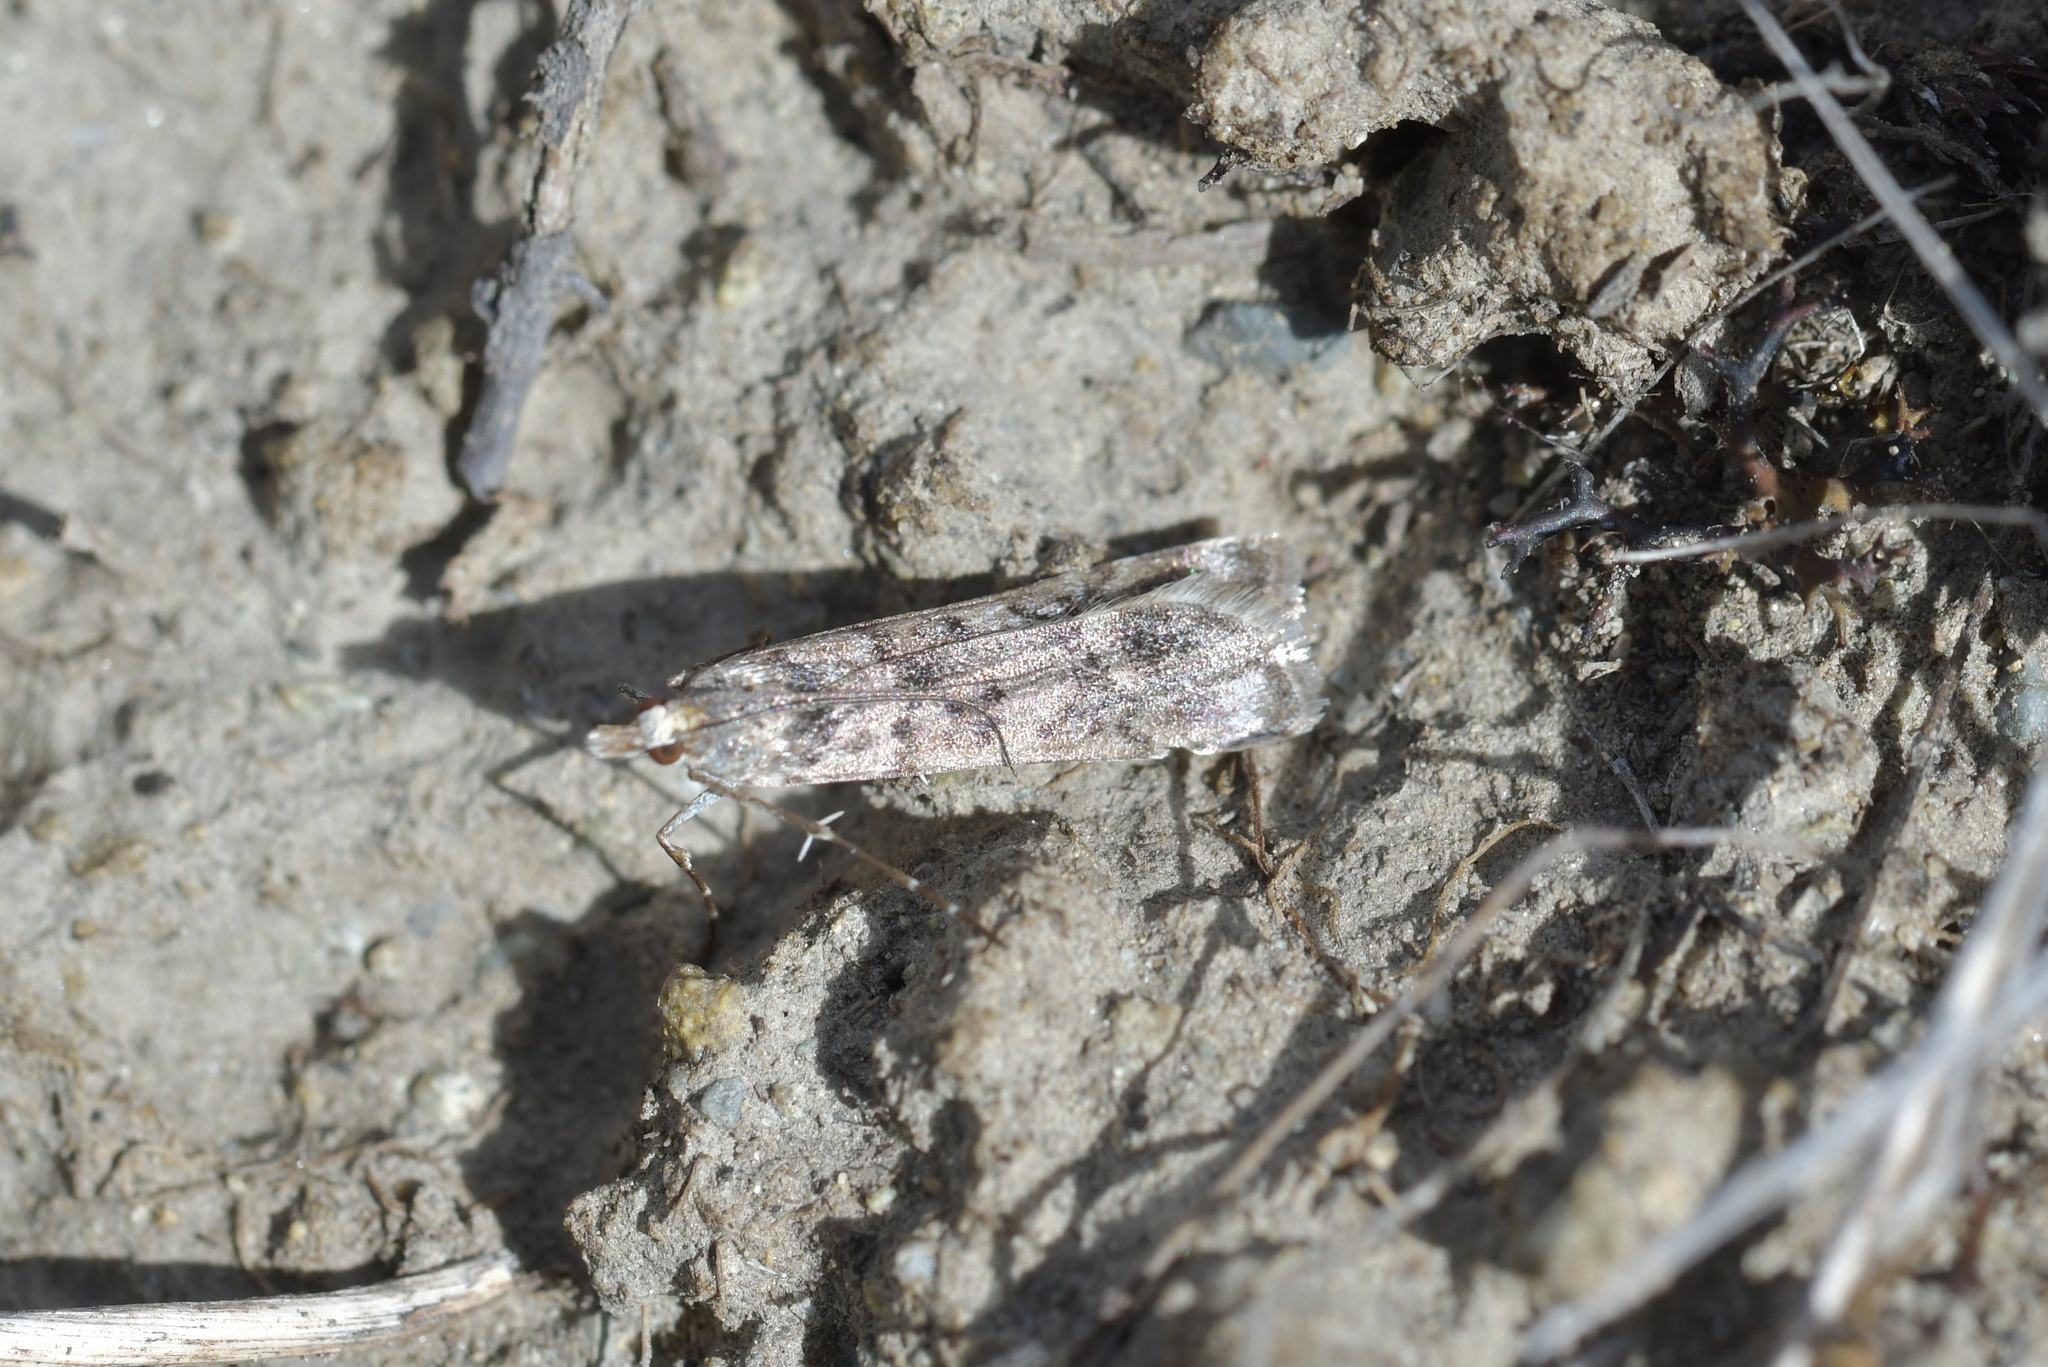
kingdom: Animalia
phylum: Arthropoda
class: Insecta
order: Lepidoptera
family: Crambidae
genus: Eudonia
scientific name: Eudonia gyrotoma
